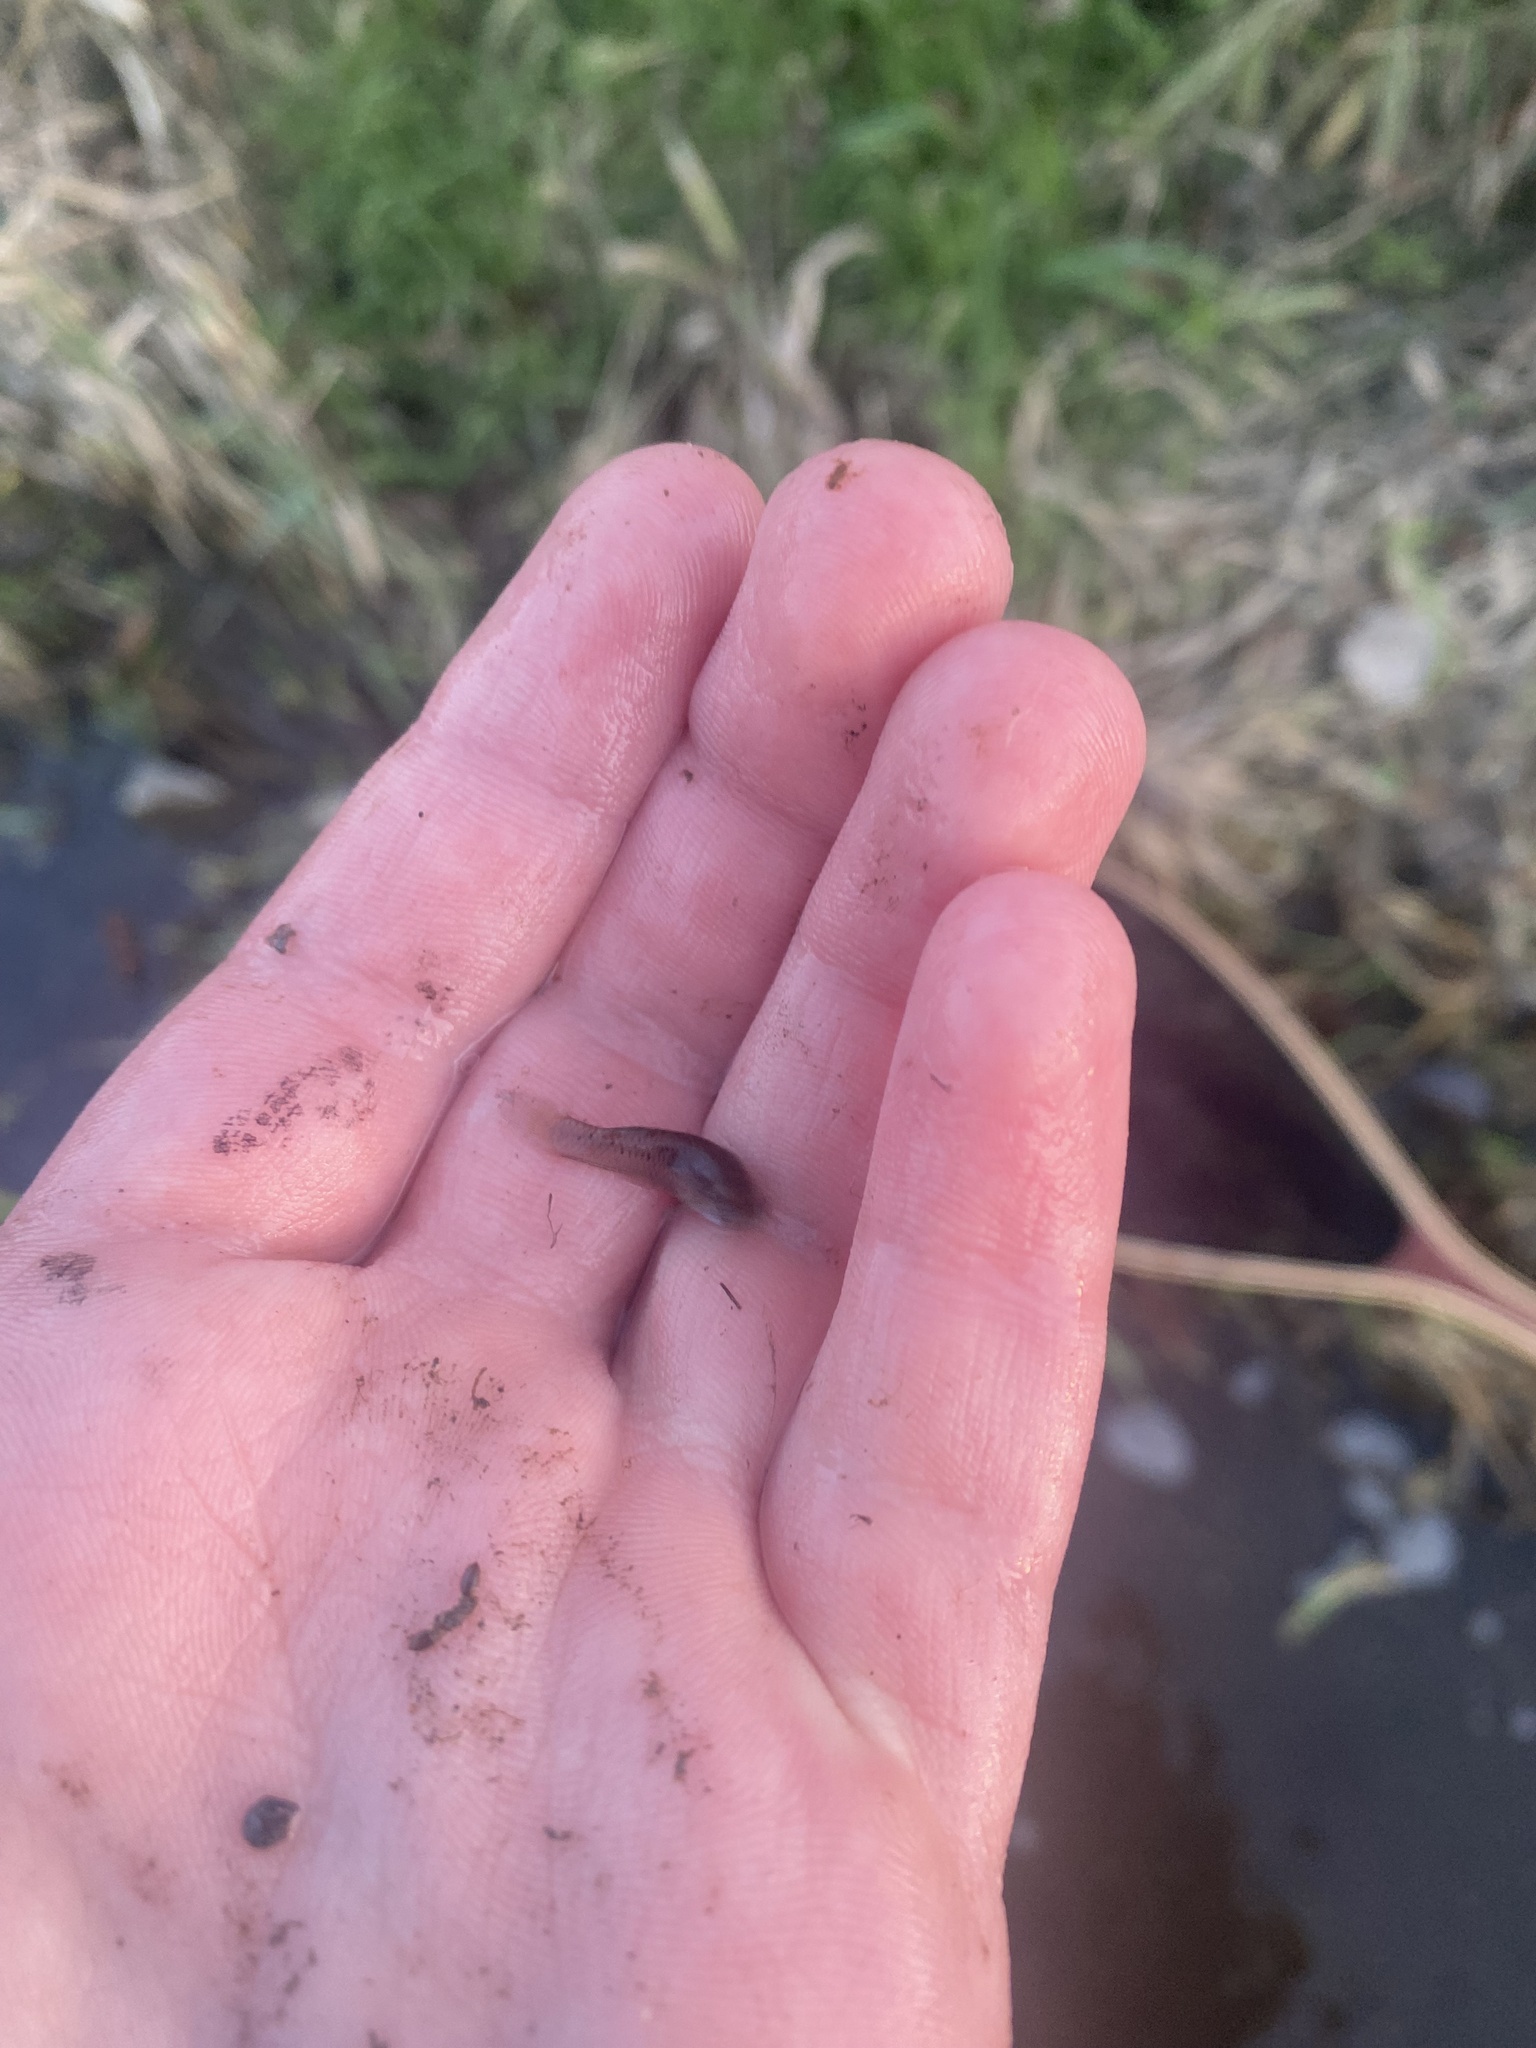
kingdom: Animalia
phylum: Chordata
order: Cyprinodontiformes
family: Poeciliidae
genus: Gambusia
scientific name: Gambusia affinis
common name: Mosquitofish
